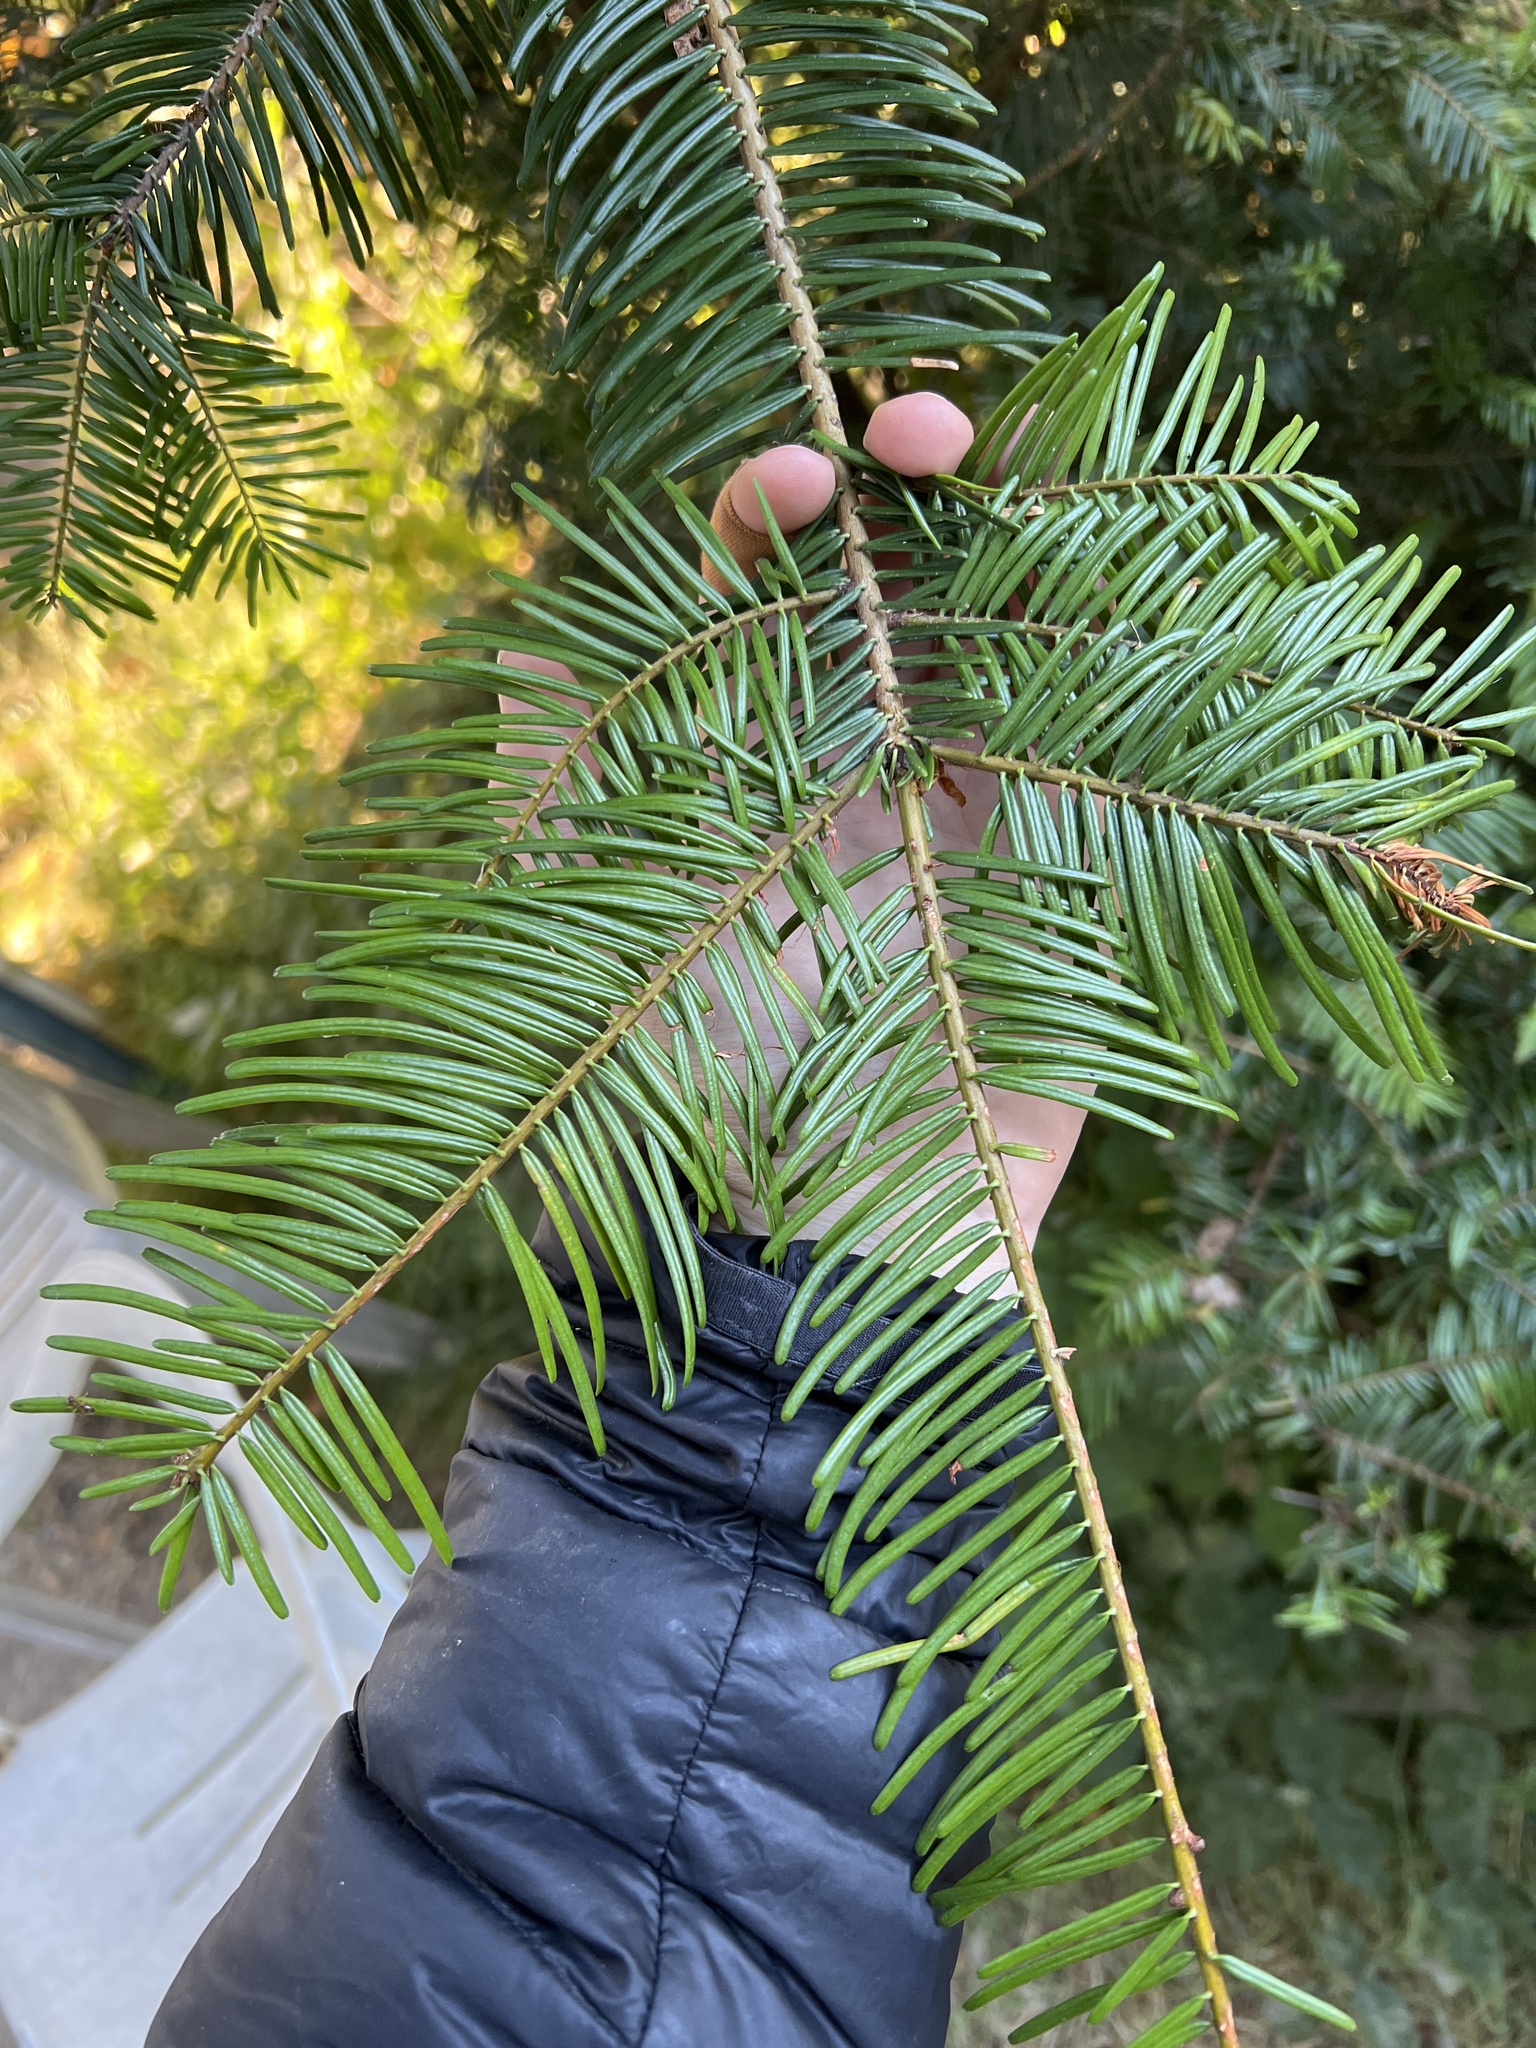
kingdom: Plantae
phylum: Tracheophyta
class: Pinopsida
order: Pinales
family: Pinaceae
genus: Abies
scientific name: Abies grandis
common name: Giant fir
